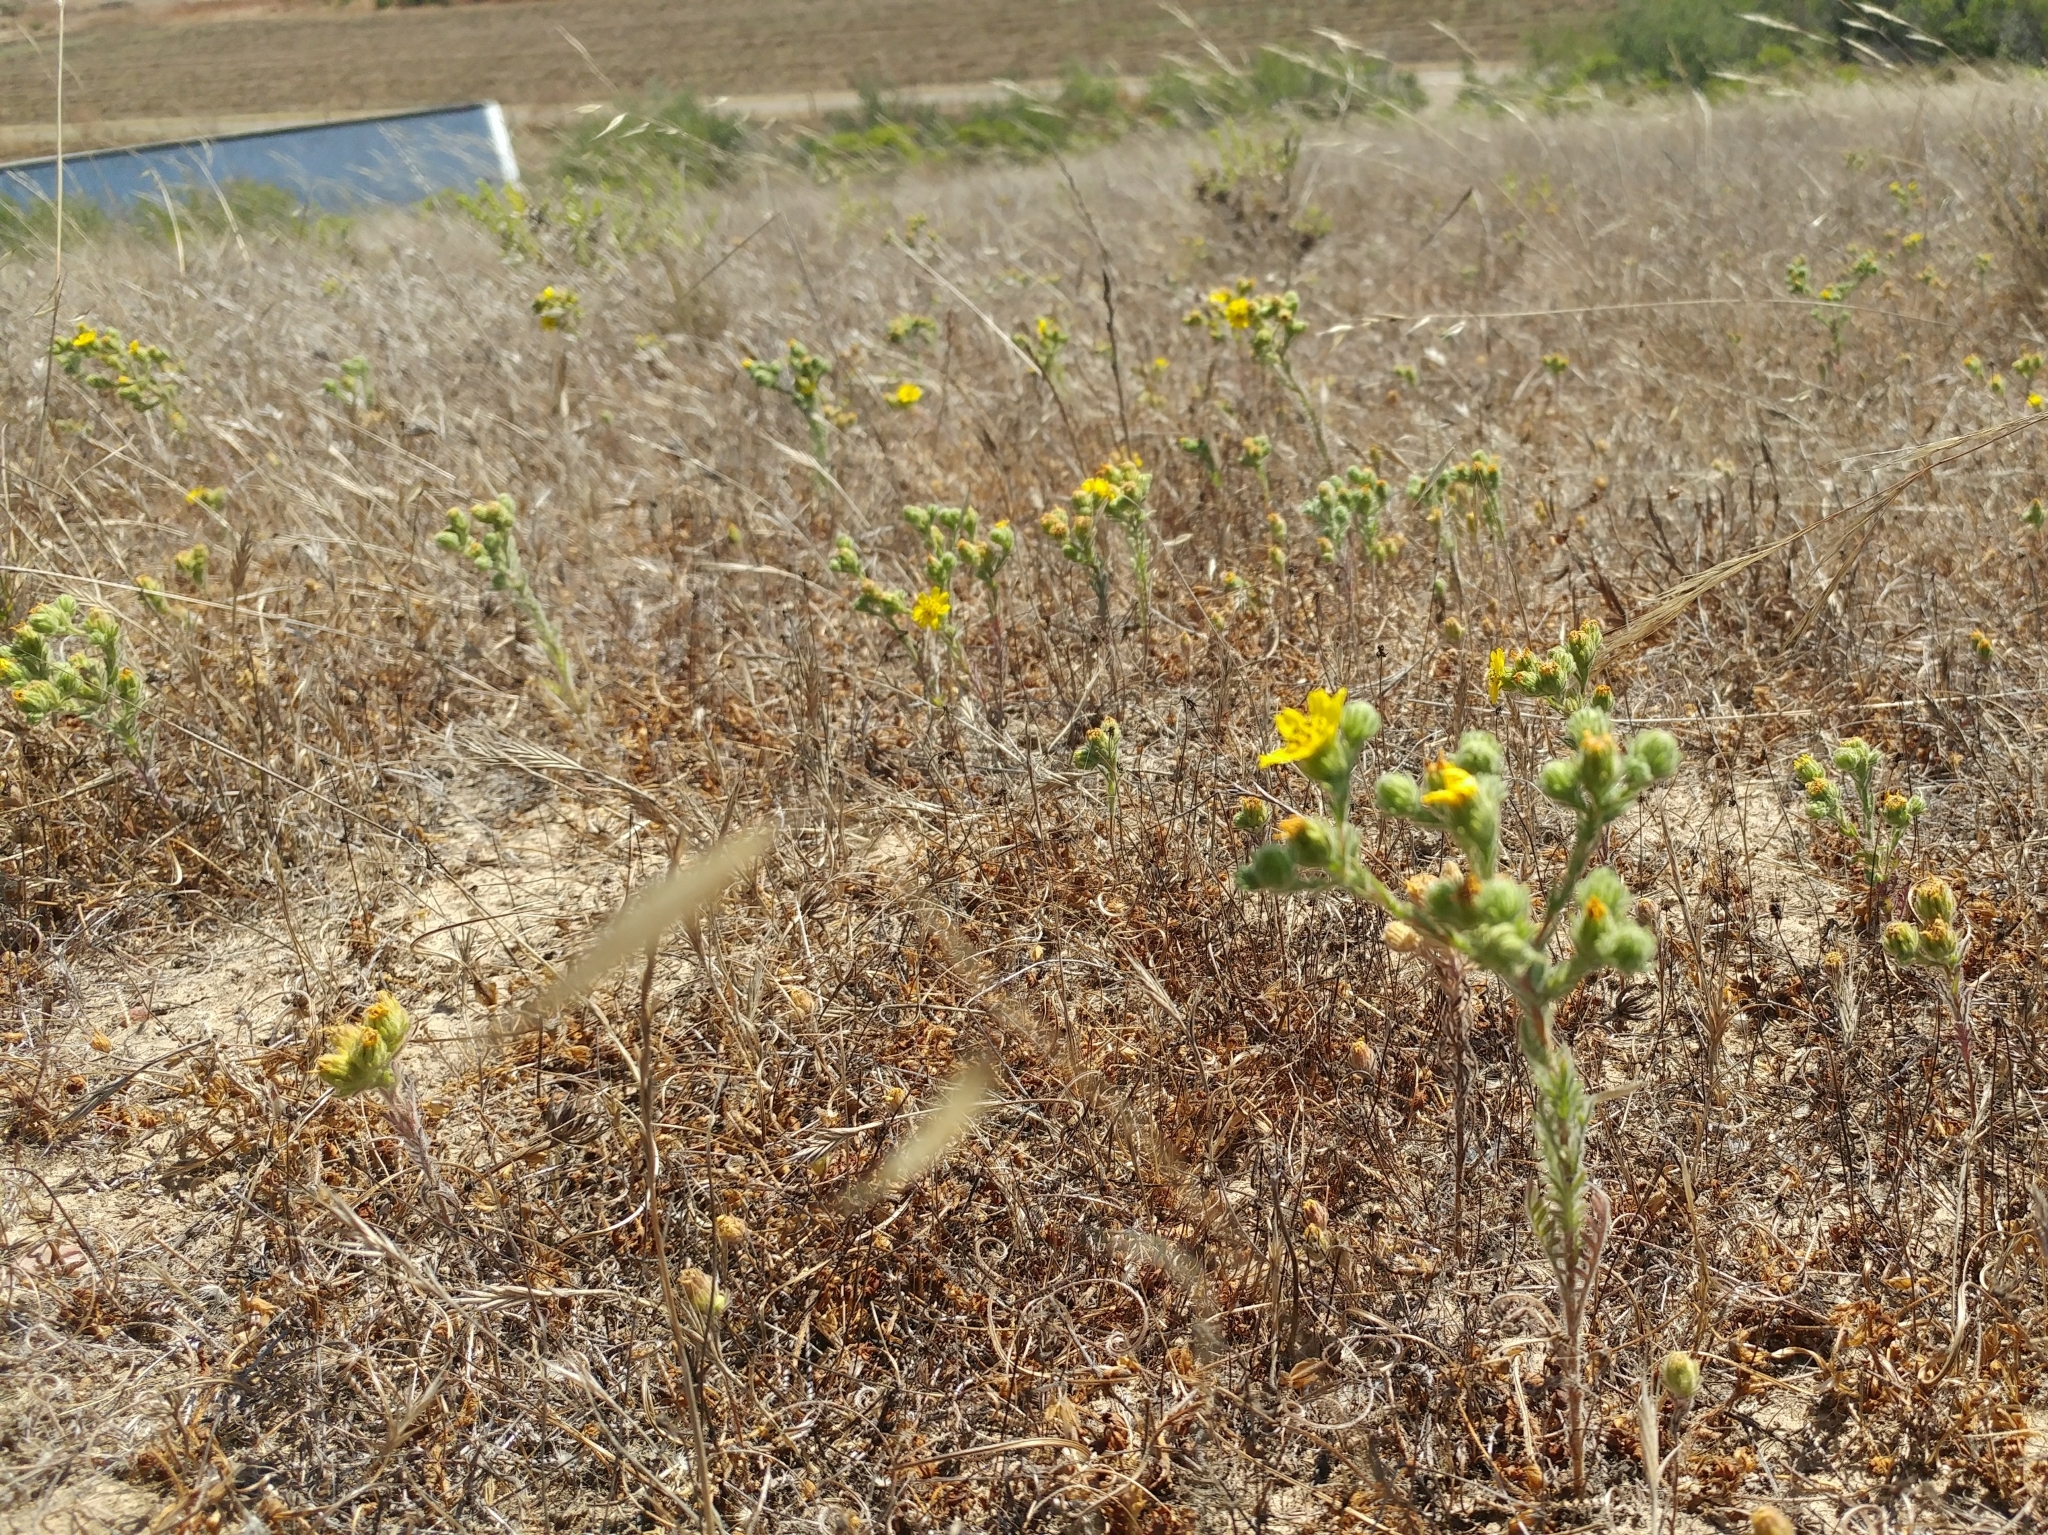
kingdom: Plantae
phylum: Tracheophyta
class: Magnoliopsida
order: Asterales
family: Asteraceae
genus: Deinandra
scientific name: Deinandra increscens
